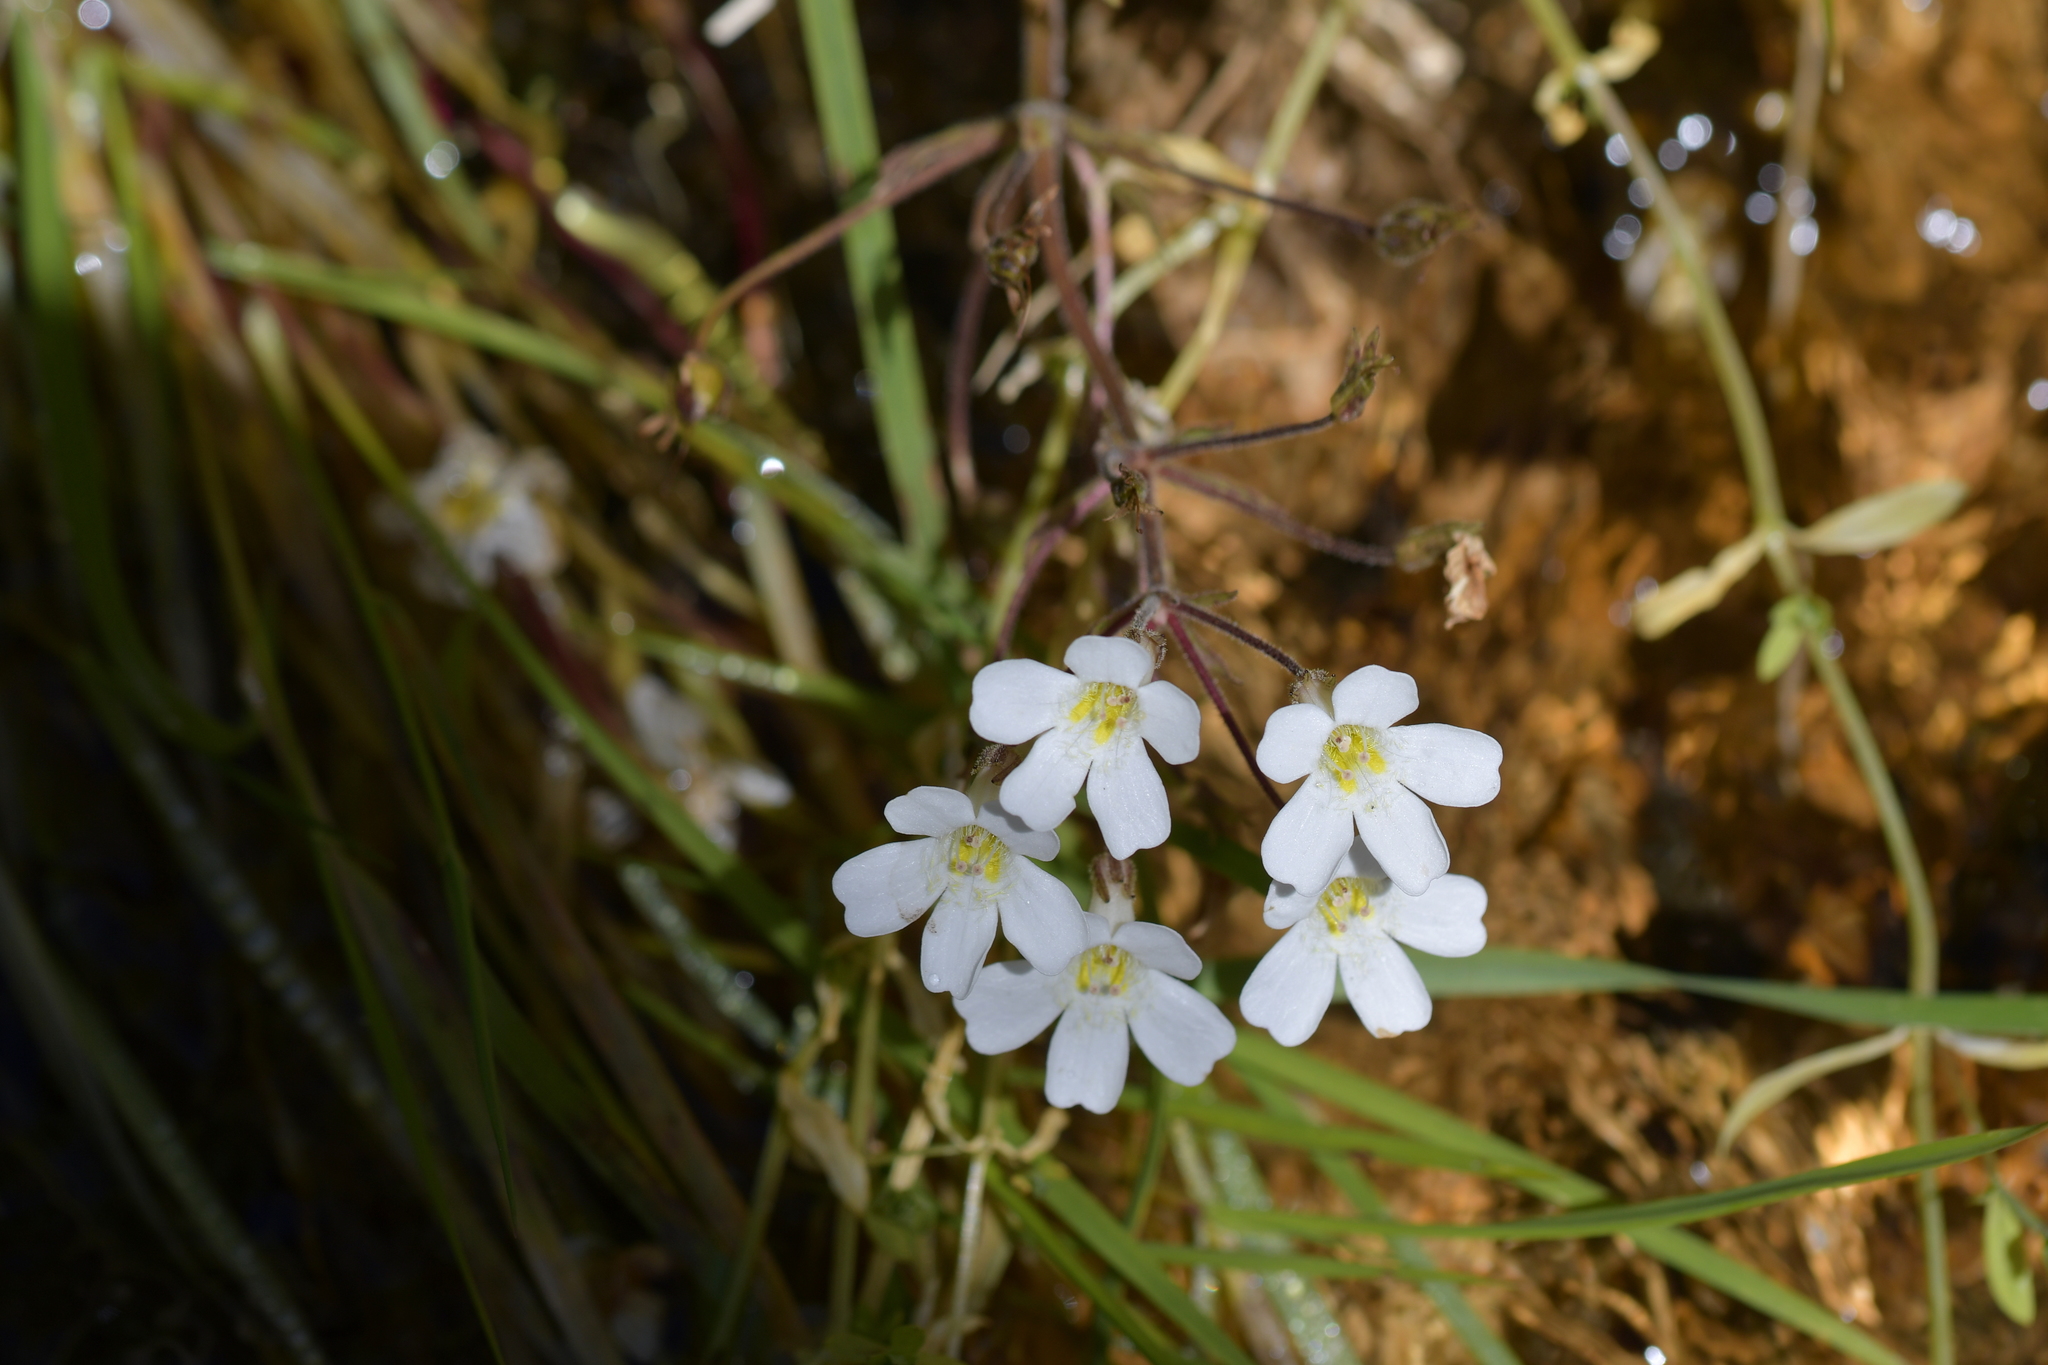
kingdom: Plantae
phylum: Tracheophyta
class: Magnoliopsida
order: Lamiales
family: Plantaginaceae
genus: Ourisia
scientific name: Ourisia macrophylla
